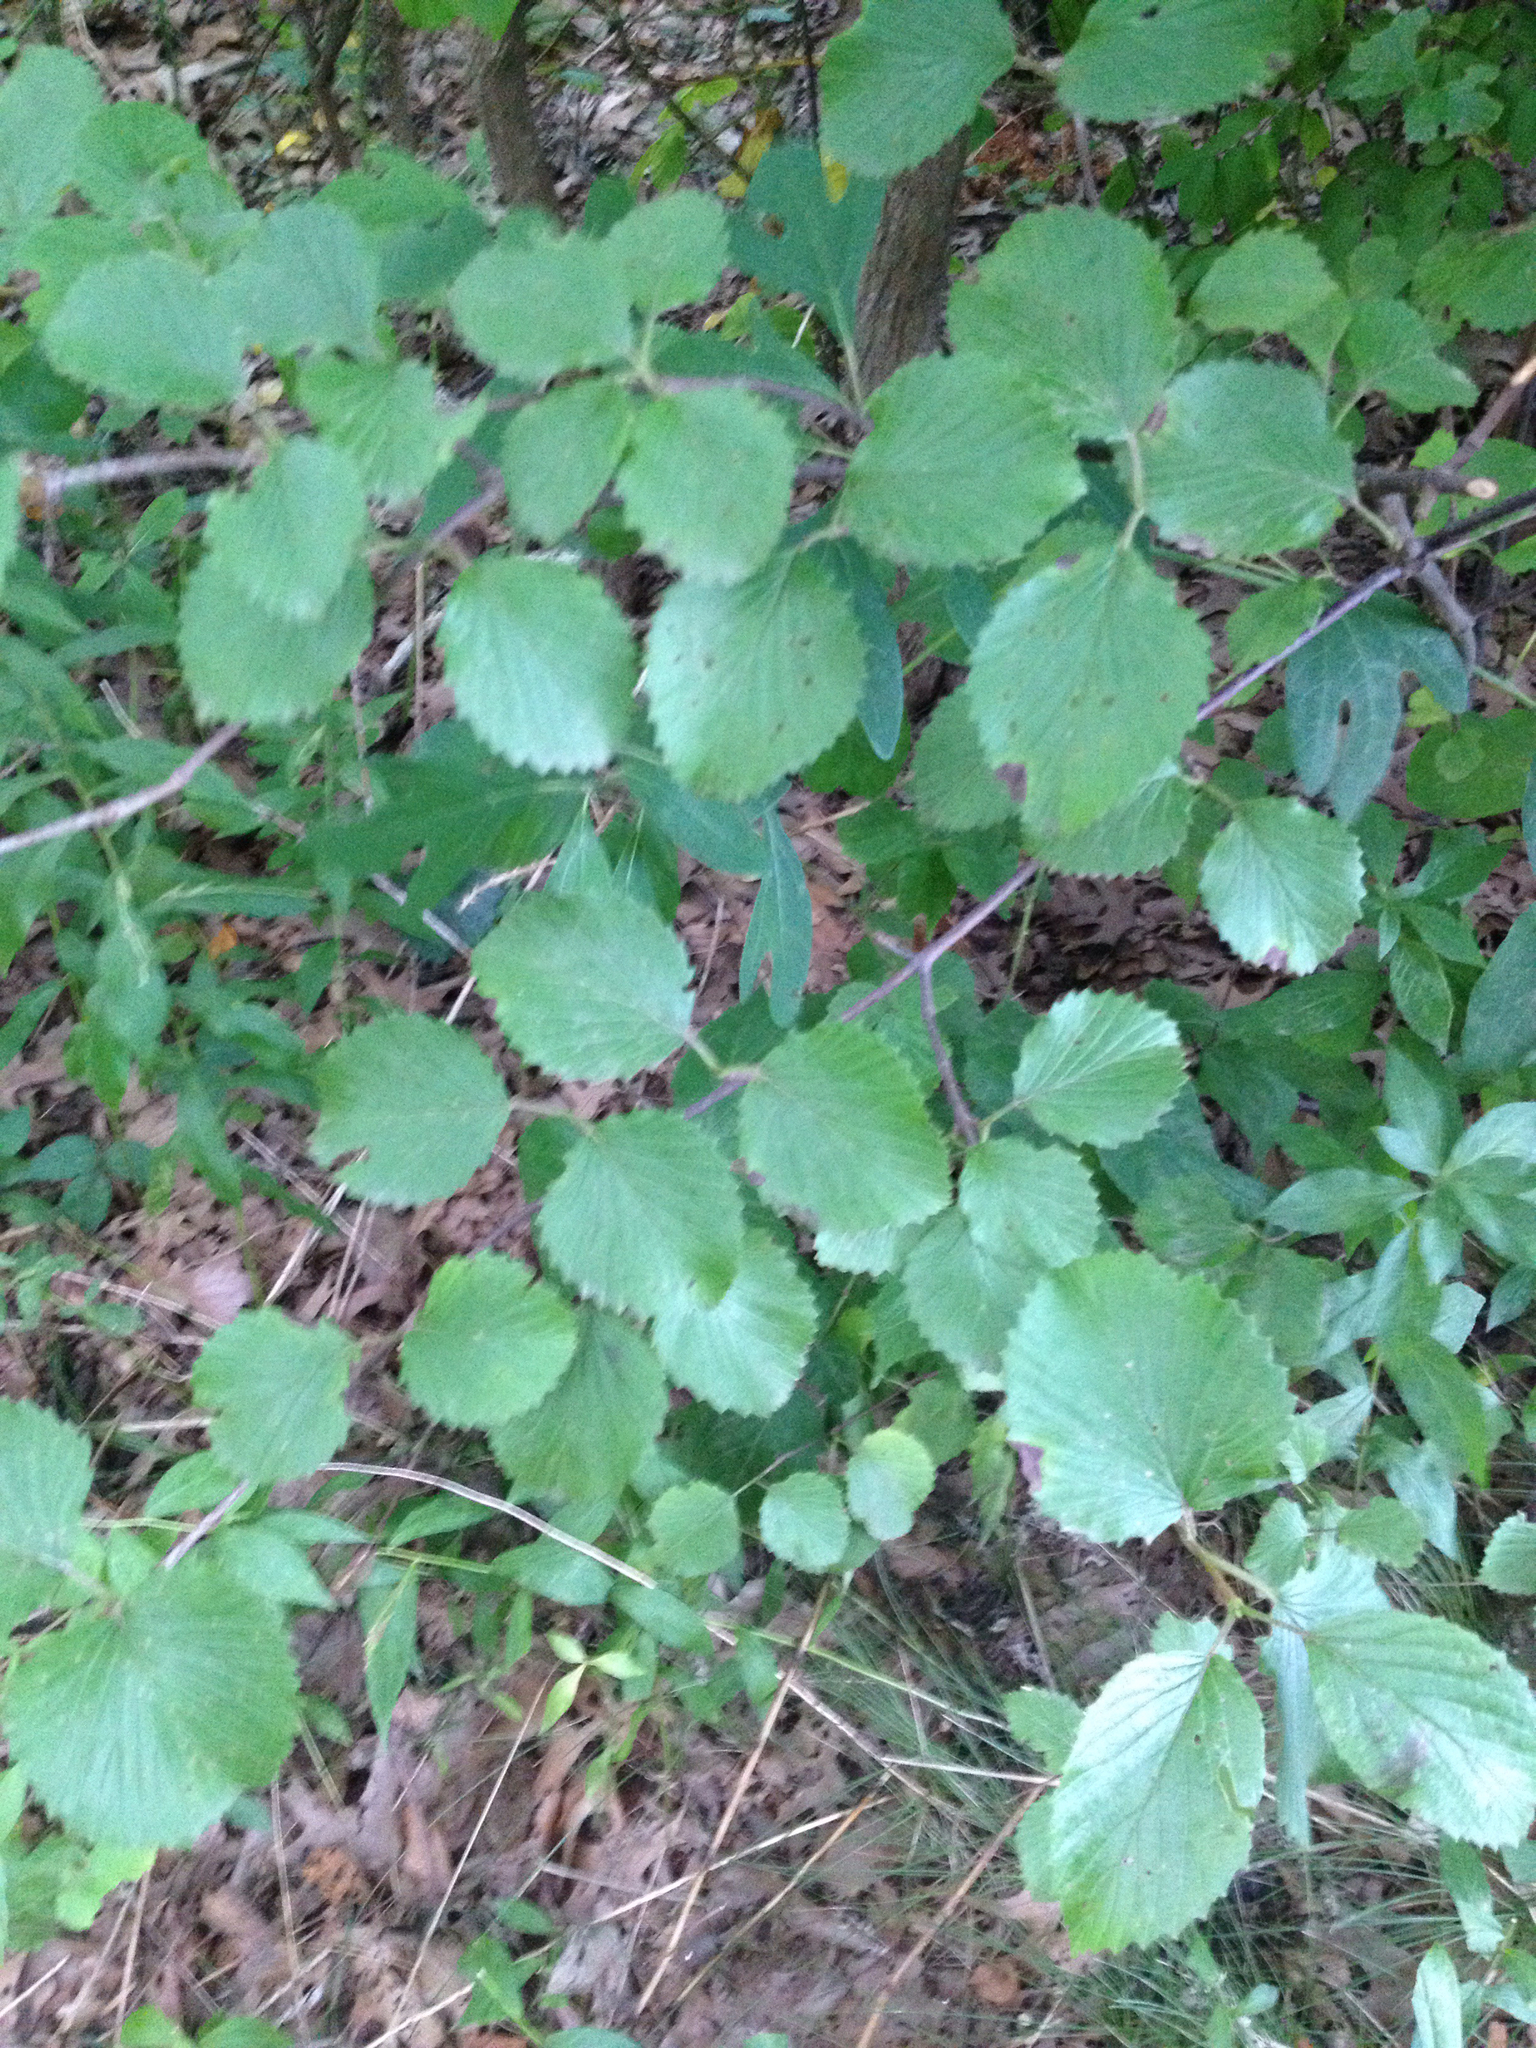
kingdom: Plantae
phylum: Tracheophyta
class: Magnoliopsida
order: Dipsacales
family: Viburnaceae
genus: Viburnum
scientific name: Viburnum dentatum
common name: Arrow-wood
